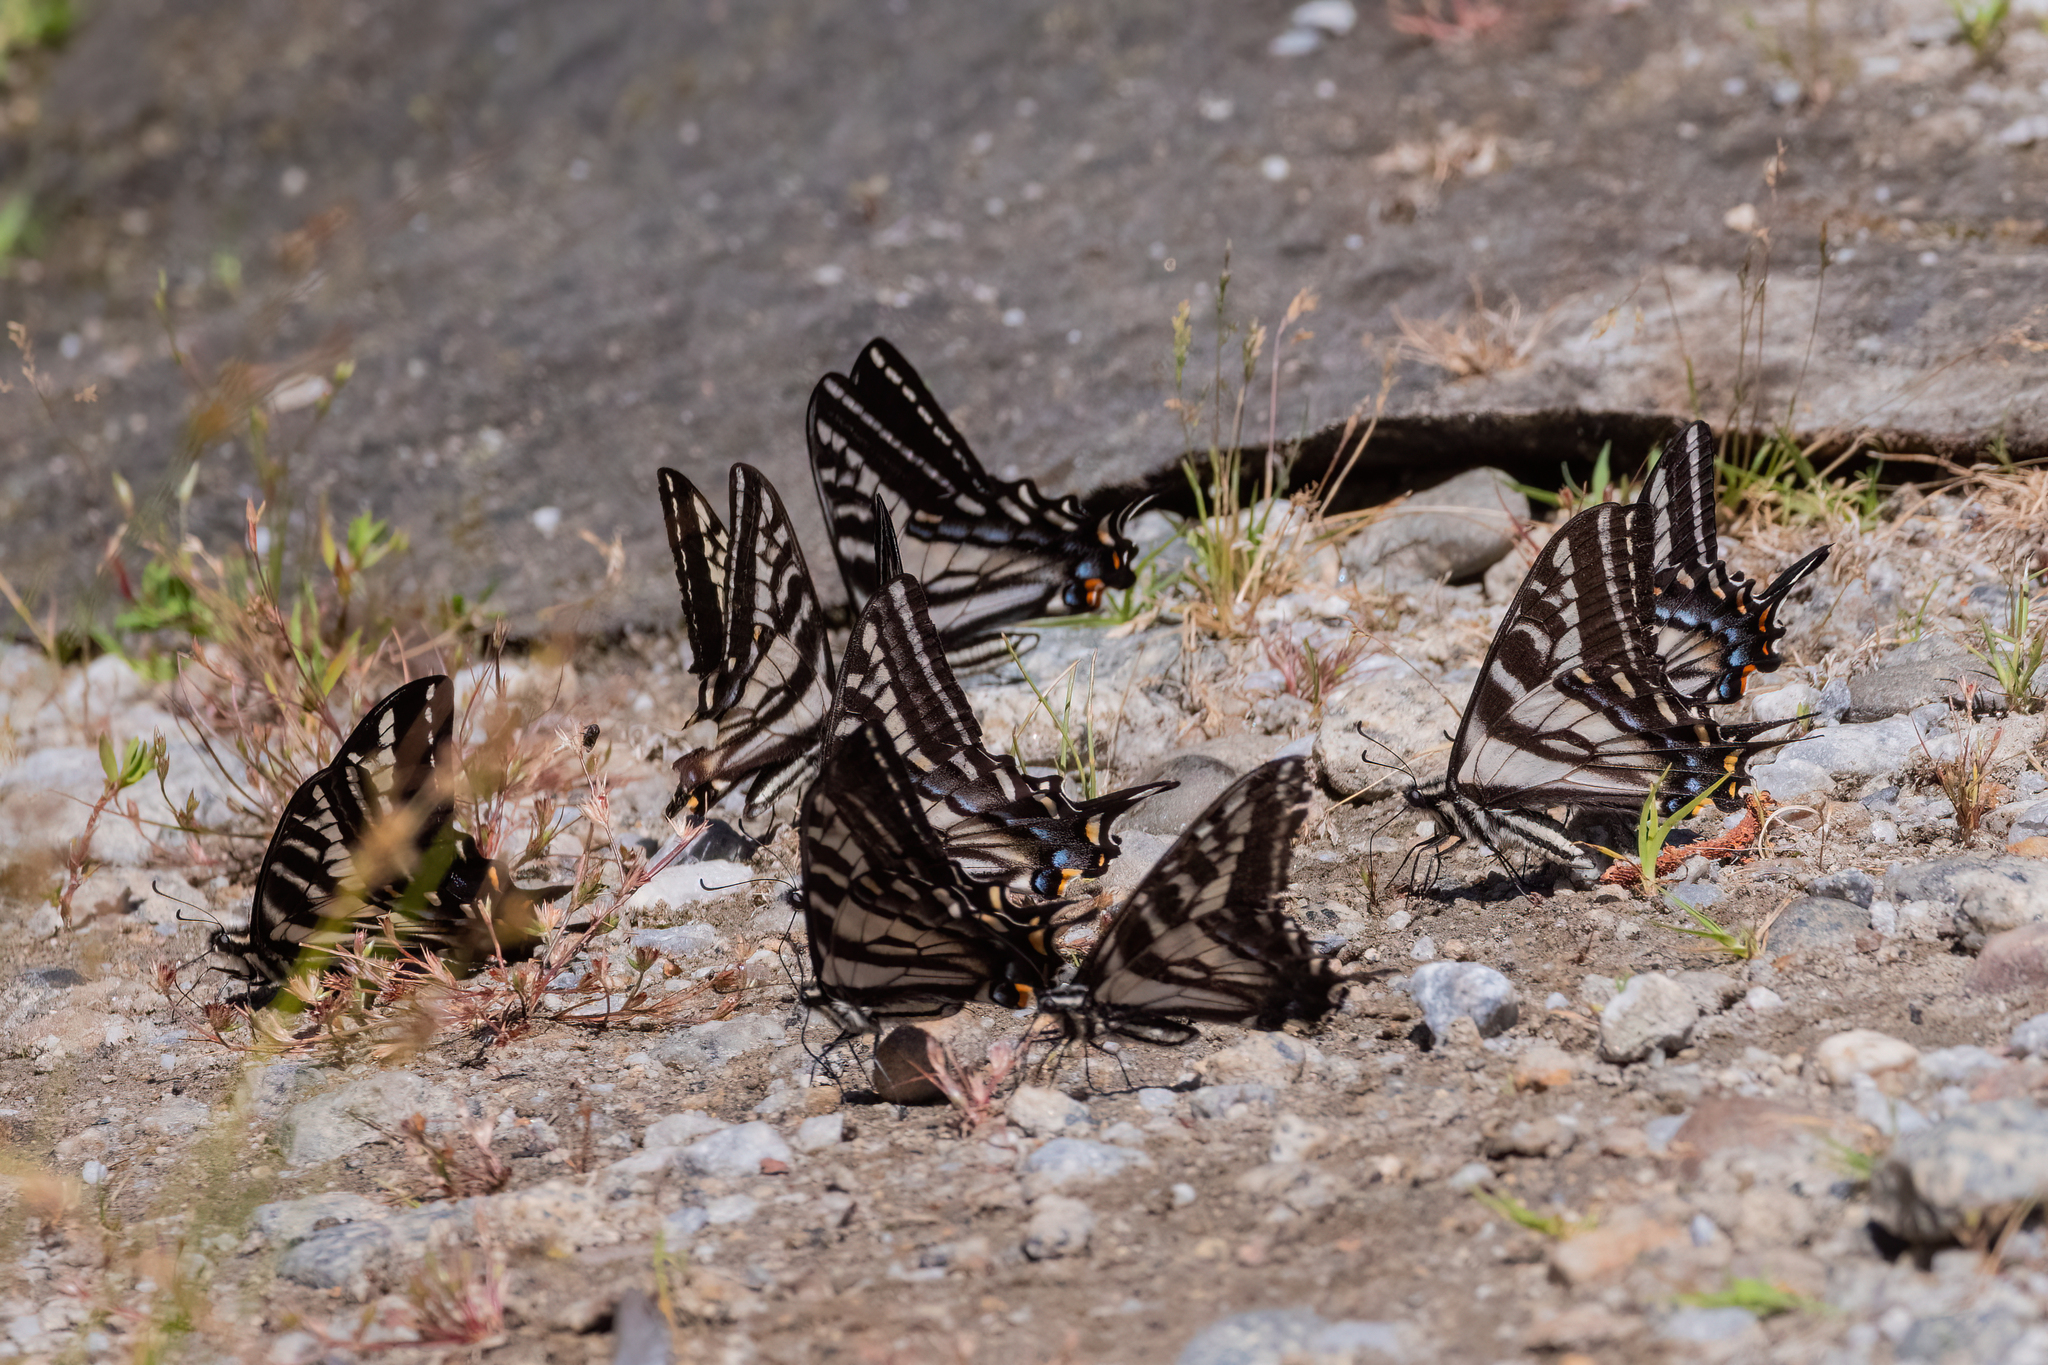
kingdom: Animalia
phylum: Arthropoda
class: Insecta
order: Lepidoptera
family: Papilionidae
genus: Papilio
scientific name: Papilio eurymedon
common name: Pale tiger swallowtail
